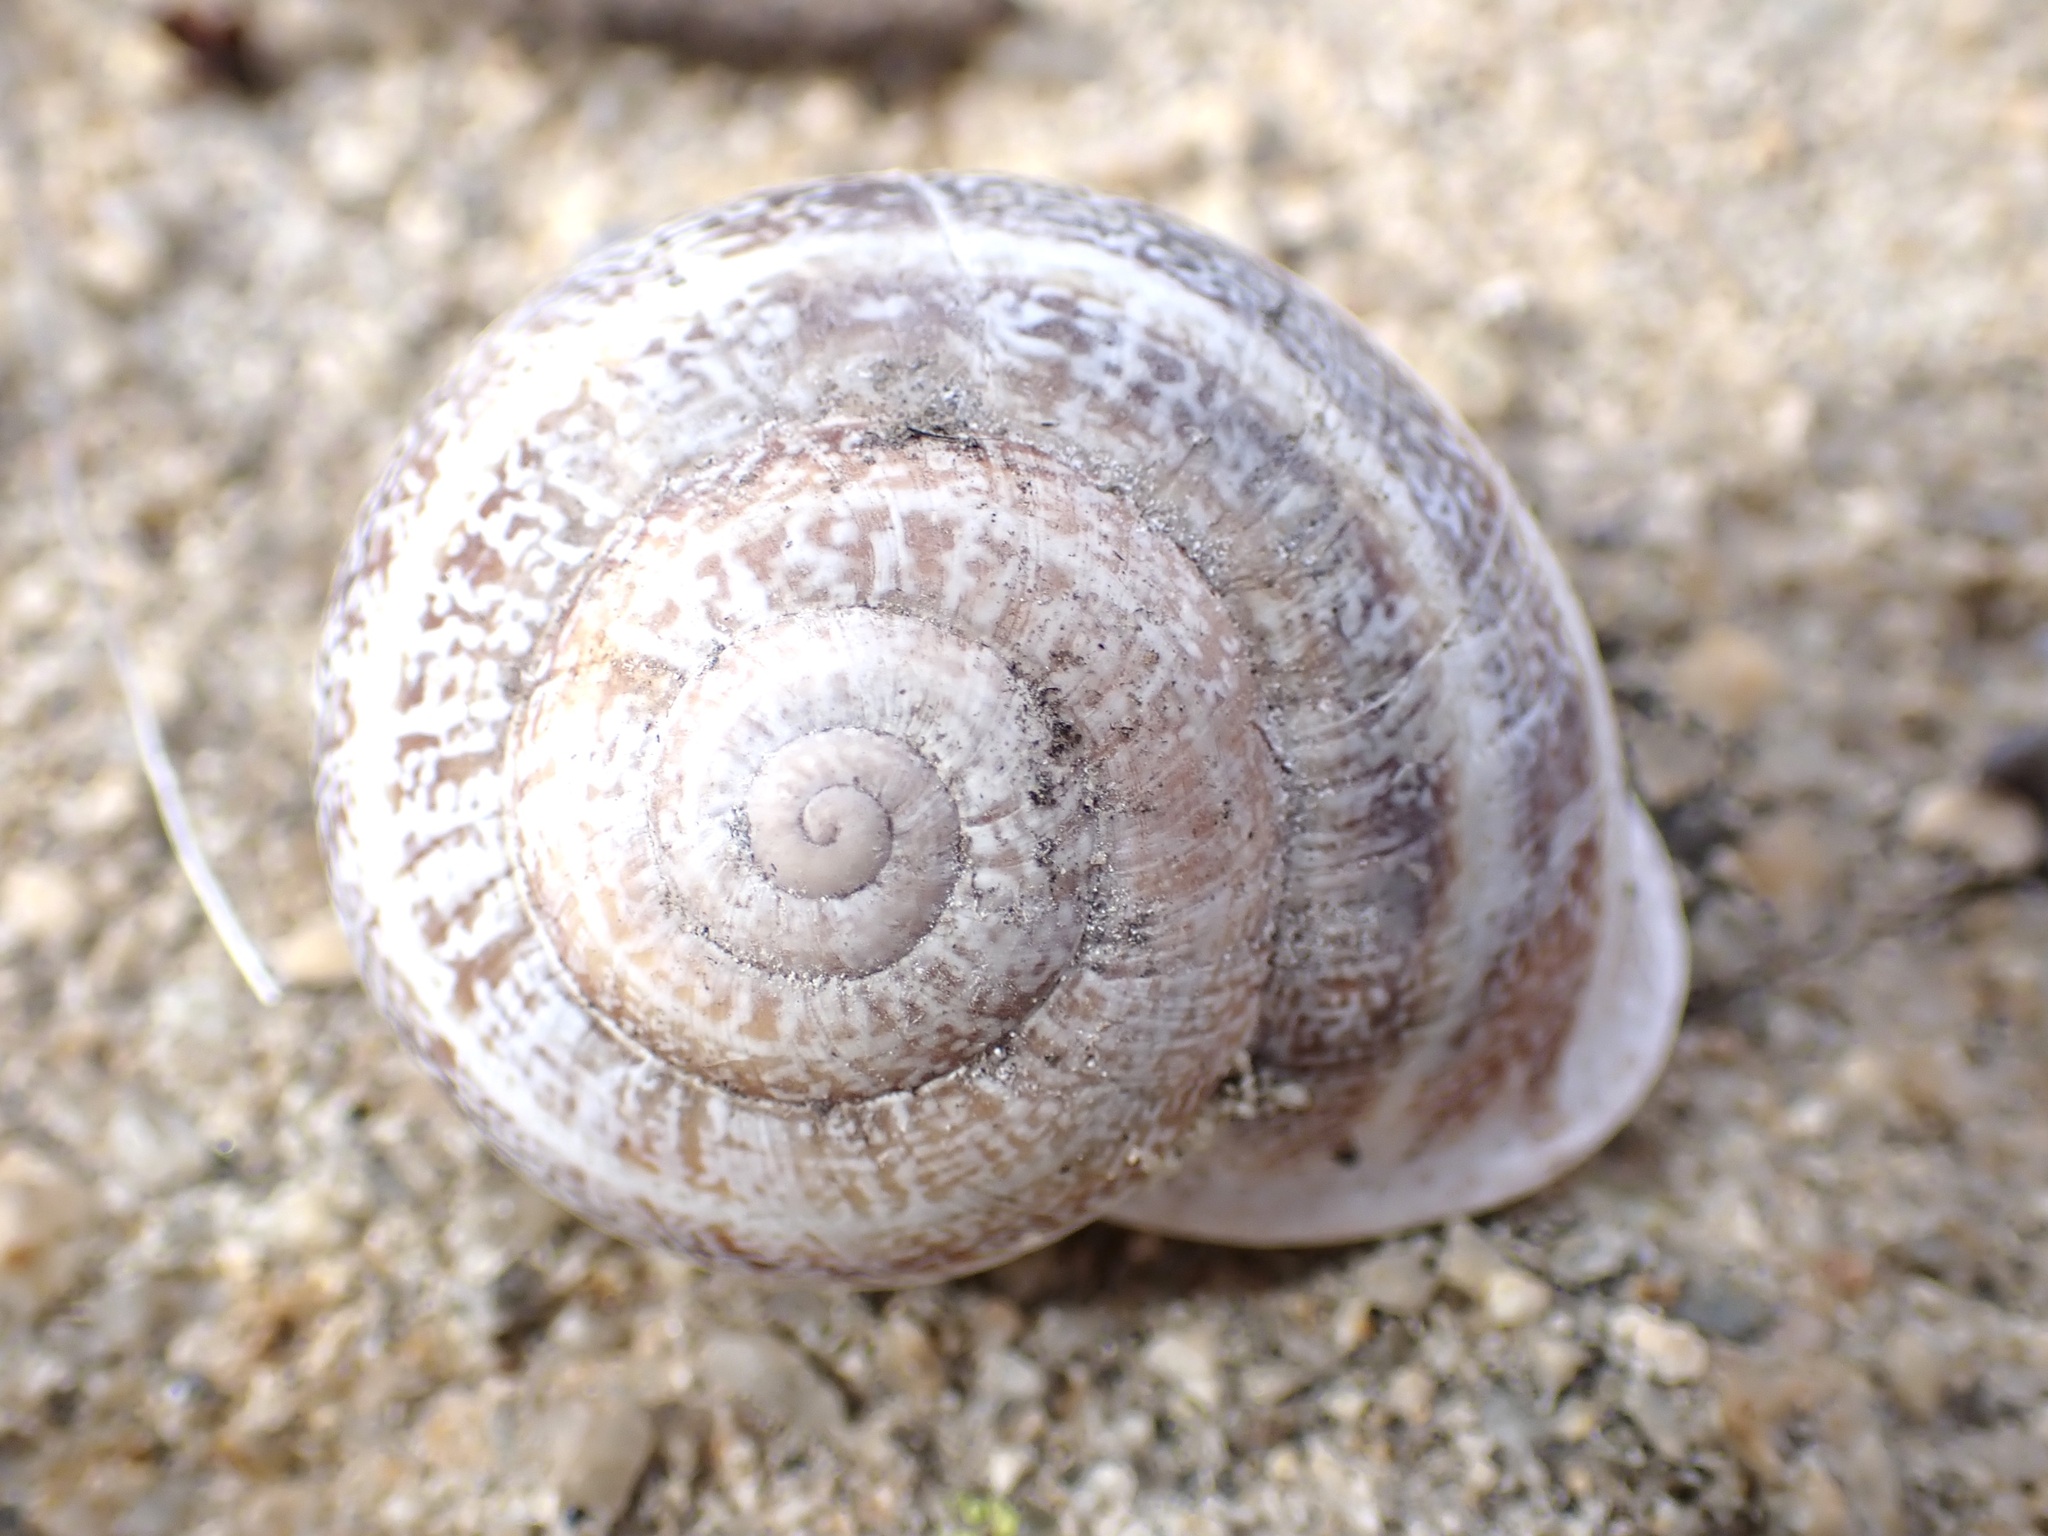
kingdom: Animalia
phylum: Mollusca
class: Gastropoda
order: Stylommatophora
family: Helicidae
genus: Otala
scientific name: Otala lactea
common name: Milk snail
